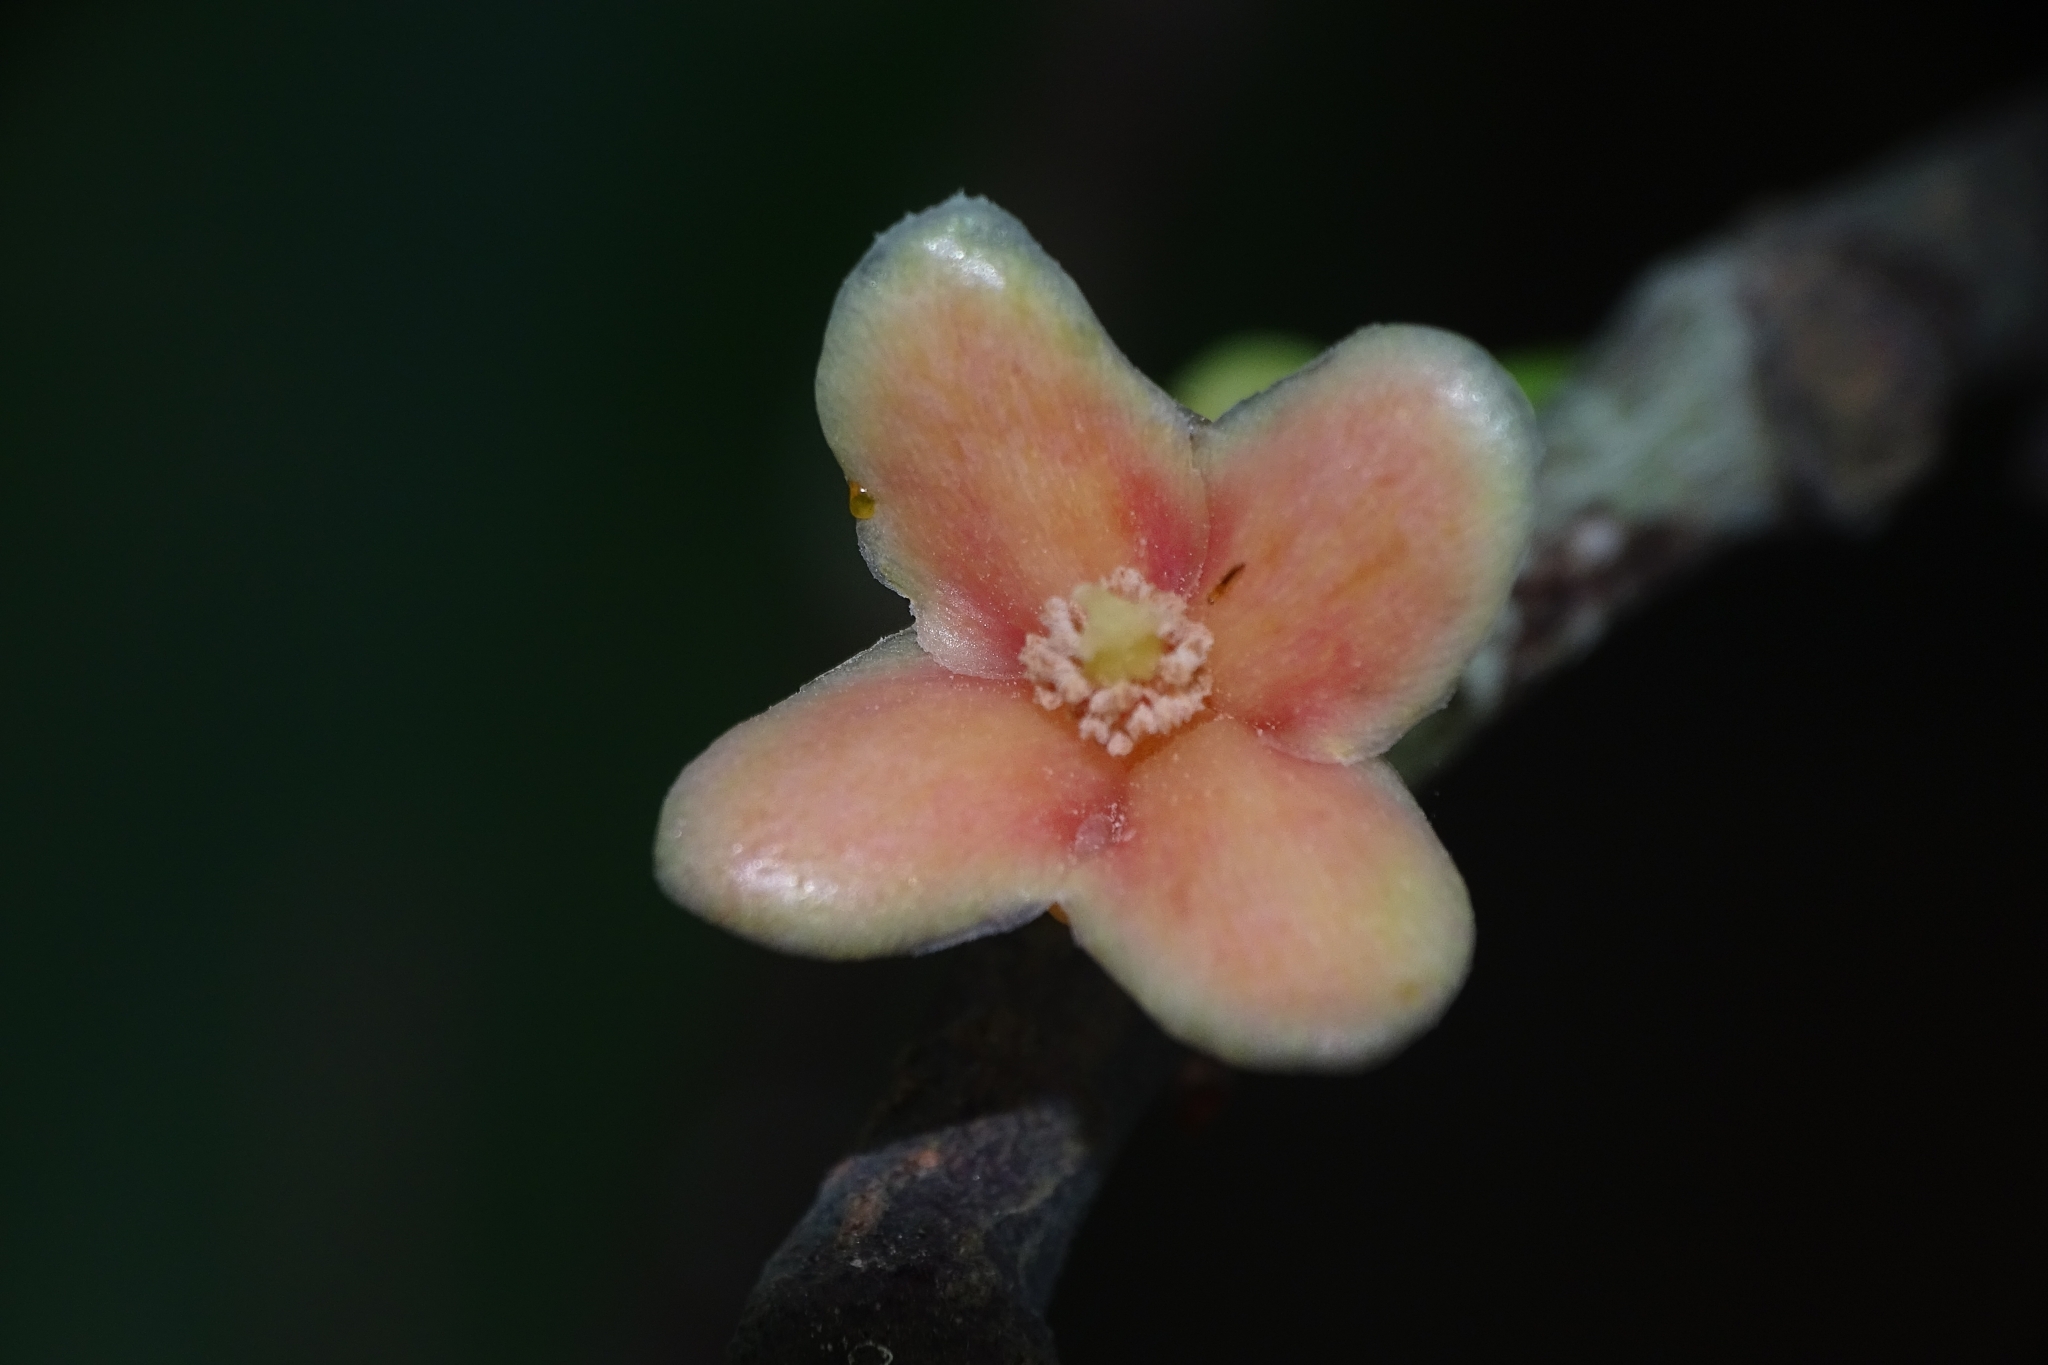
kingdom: Plantae
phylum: Tracheophyta
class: Magnoliopsida
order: Malpighiales
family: Clusiaceae
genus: Garcinia
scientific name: Garcinia gummi-gutta
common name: Malabar tamarind
